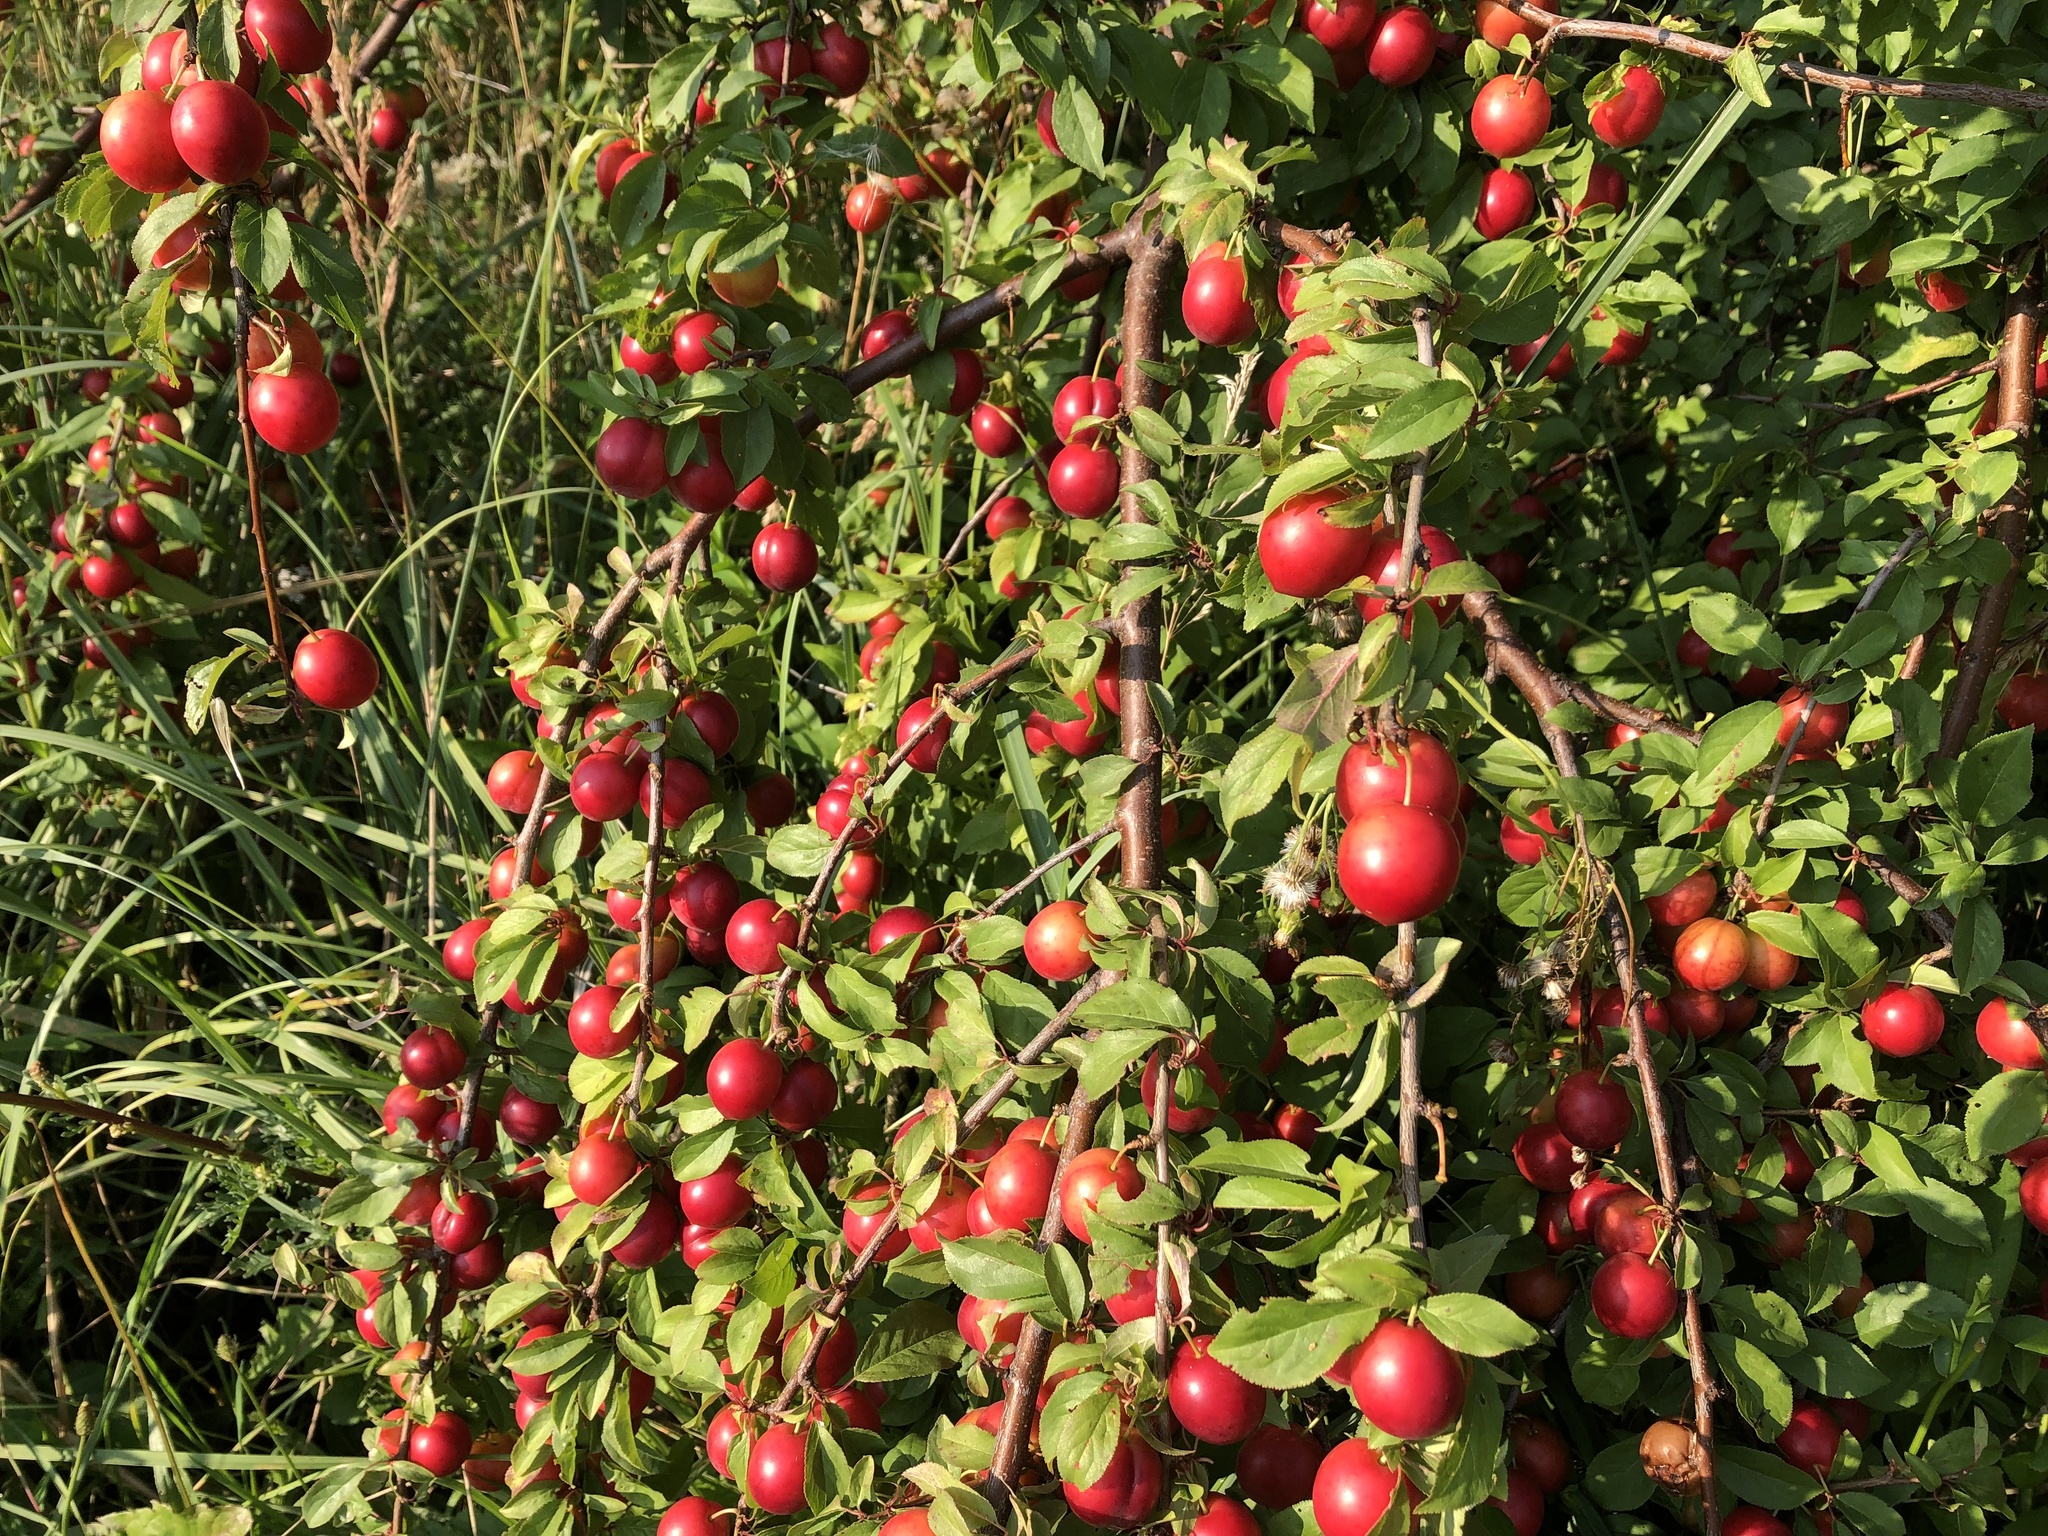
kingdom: Plantae
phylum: Tracheophyta
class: Magnoliopsida
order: Rosales
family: Rosaceae
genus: Prunus
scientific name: Prunus cerasifera
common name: Cherry plum
